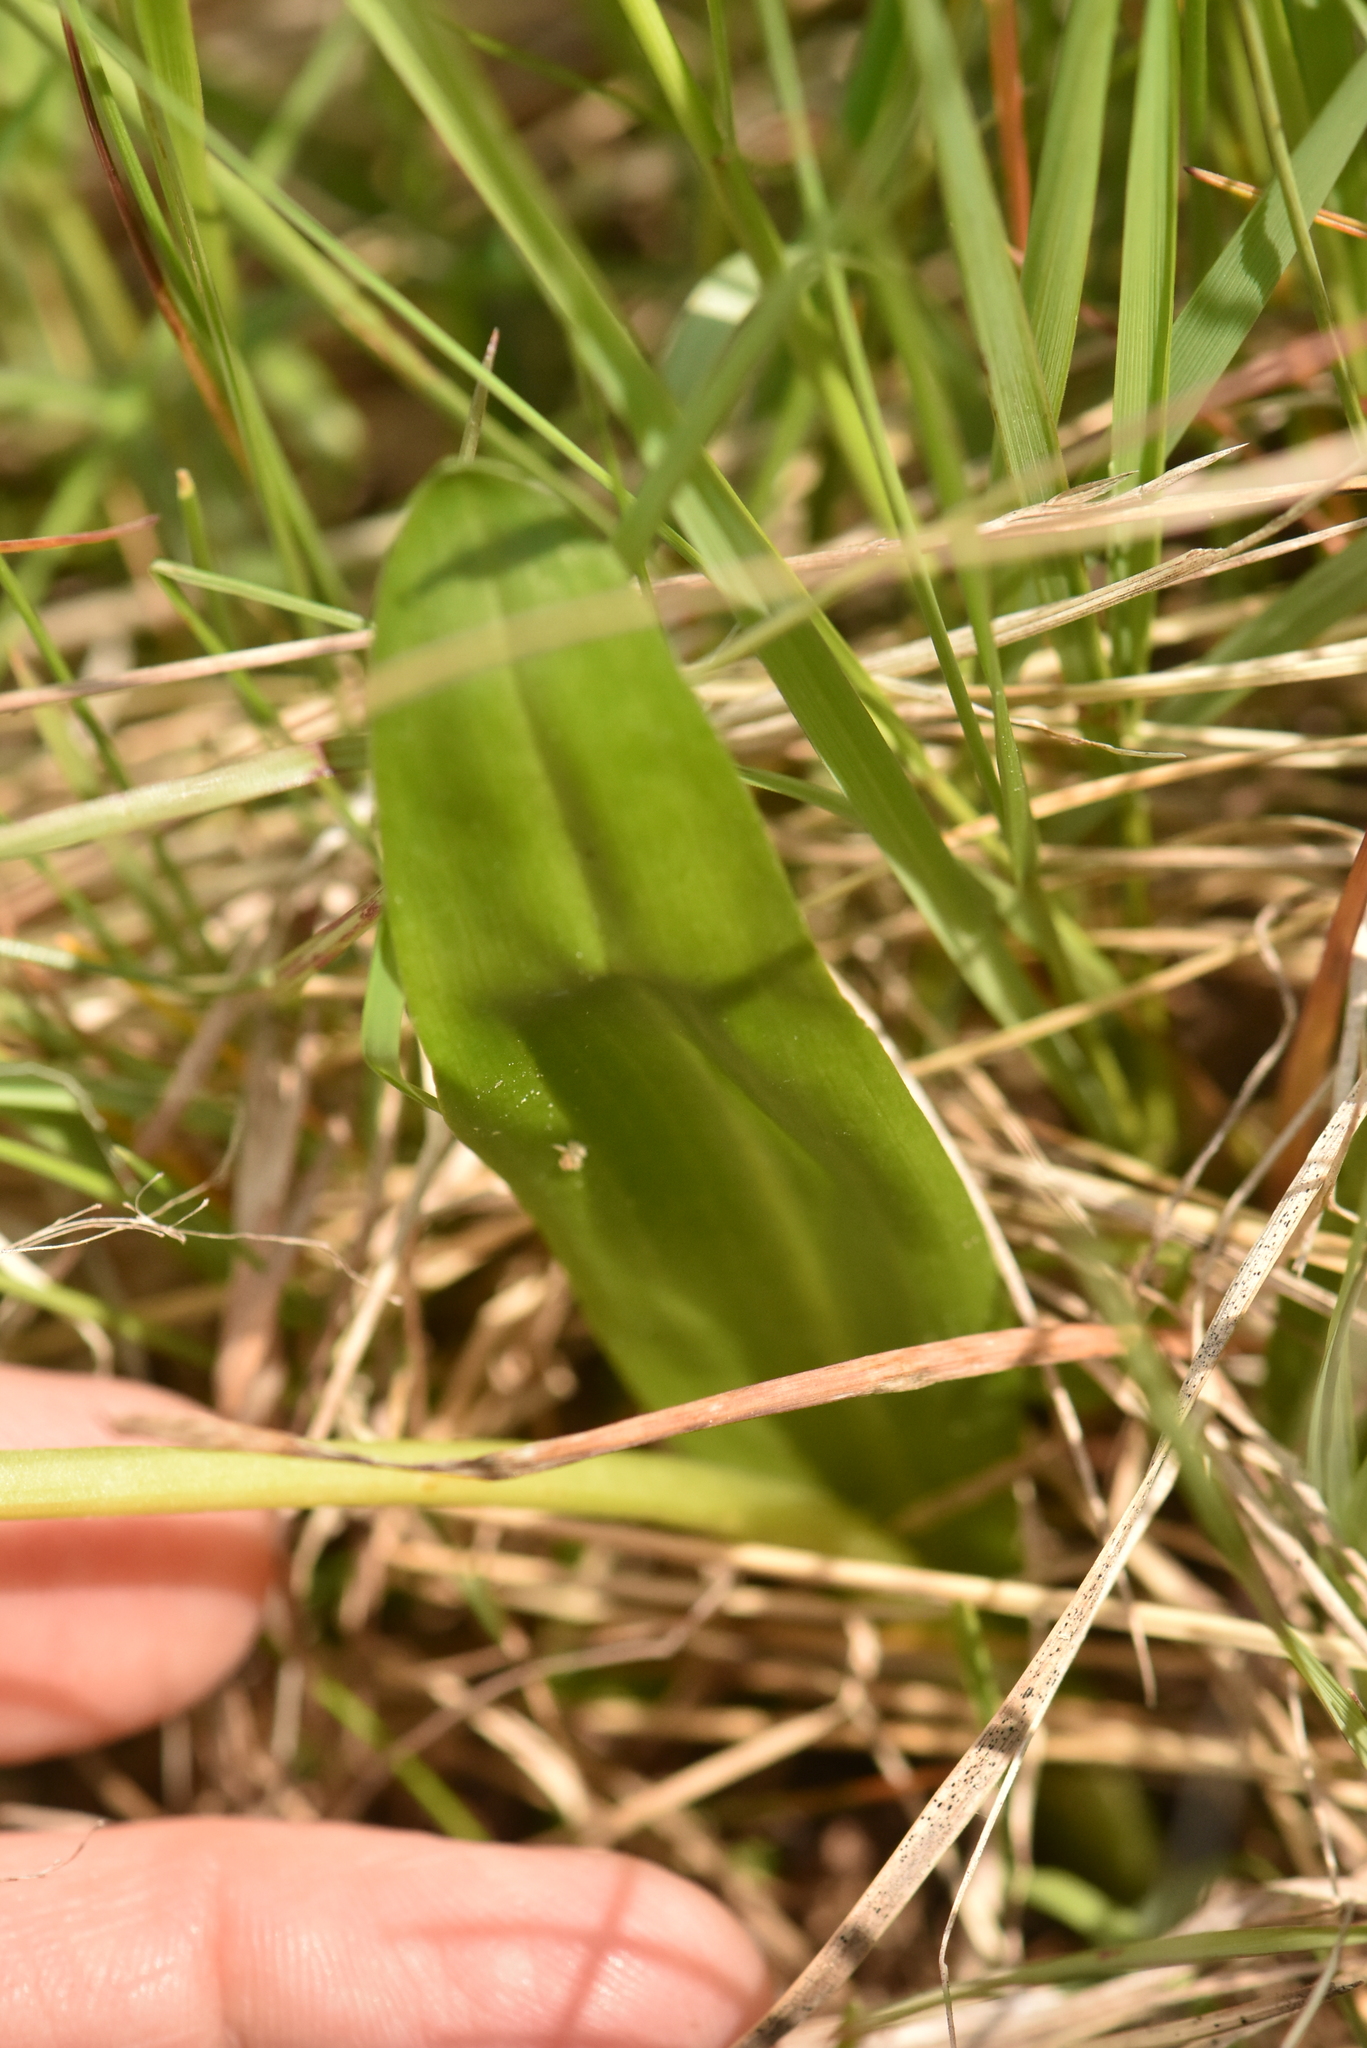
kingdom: Plantae
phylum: Tracheophyta
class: Liliopsida
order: Asparagales
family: Orchidaceae
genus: Platanthera
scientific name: Platanthera bifolia
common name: Lesser butterfly-orchid
